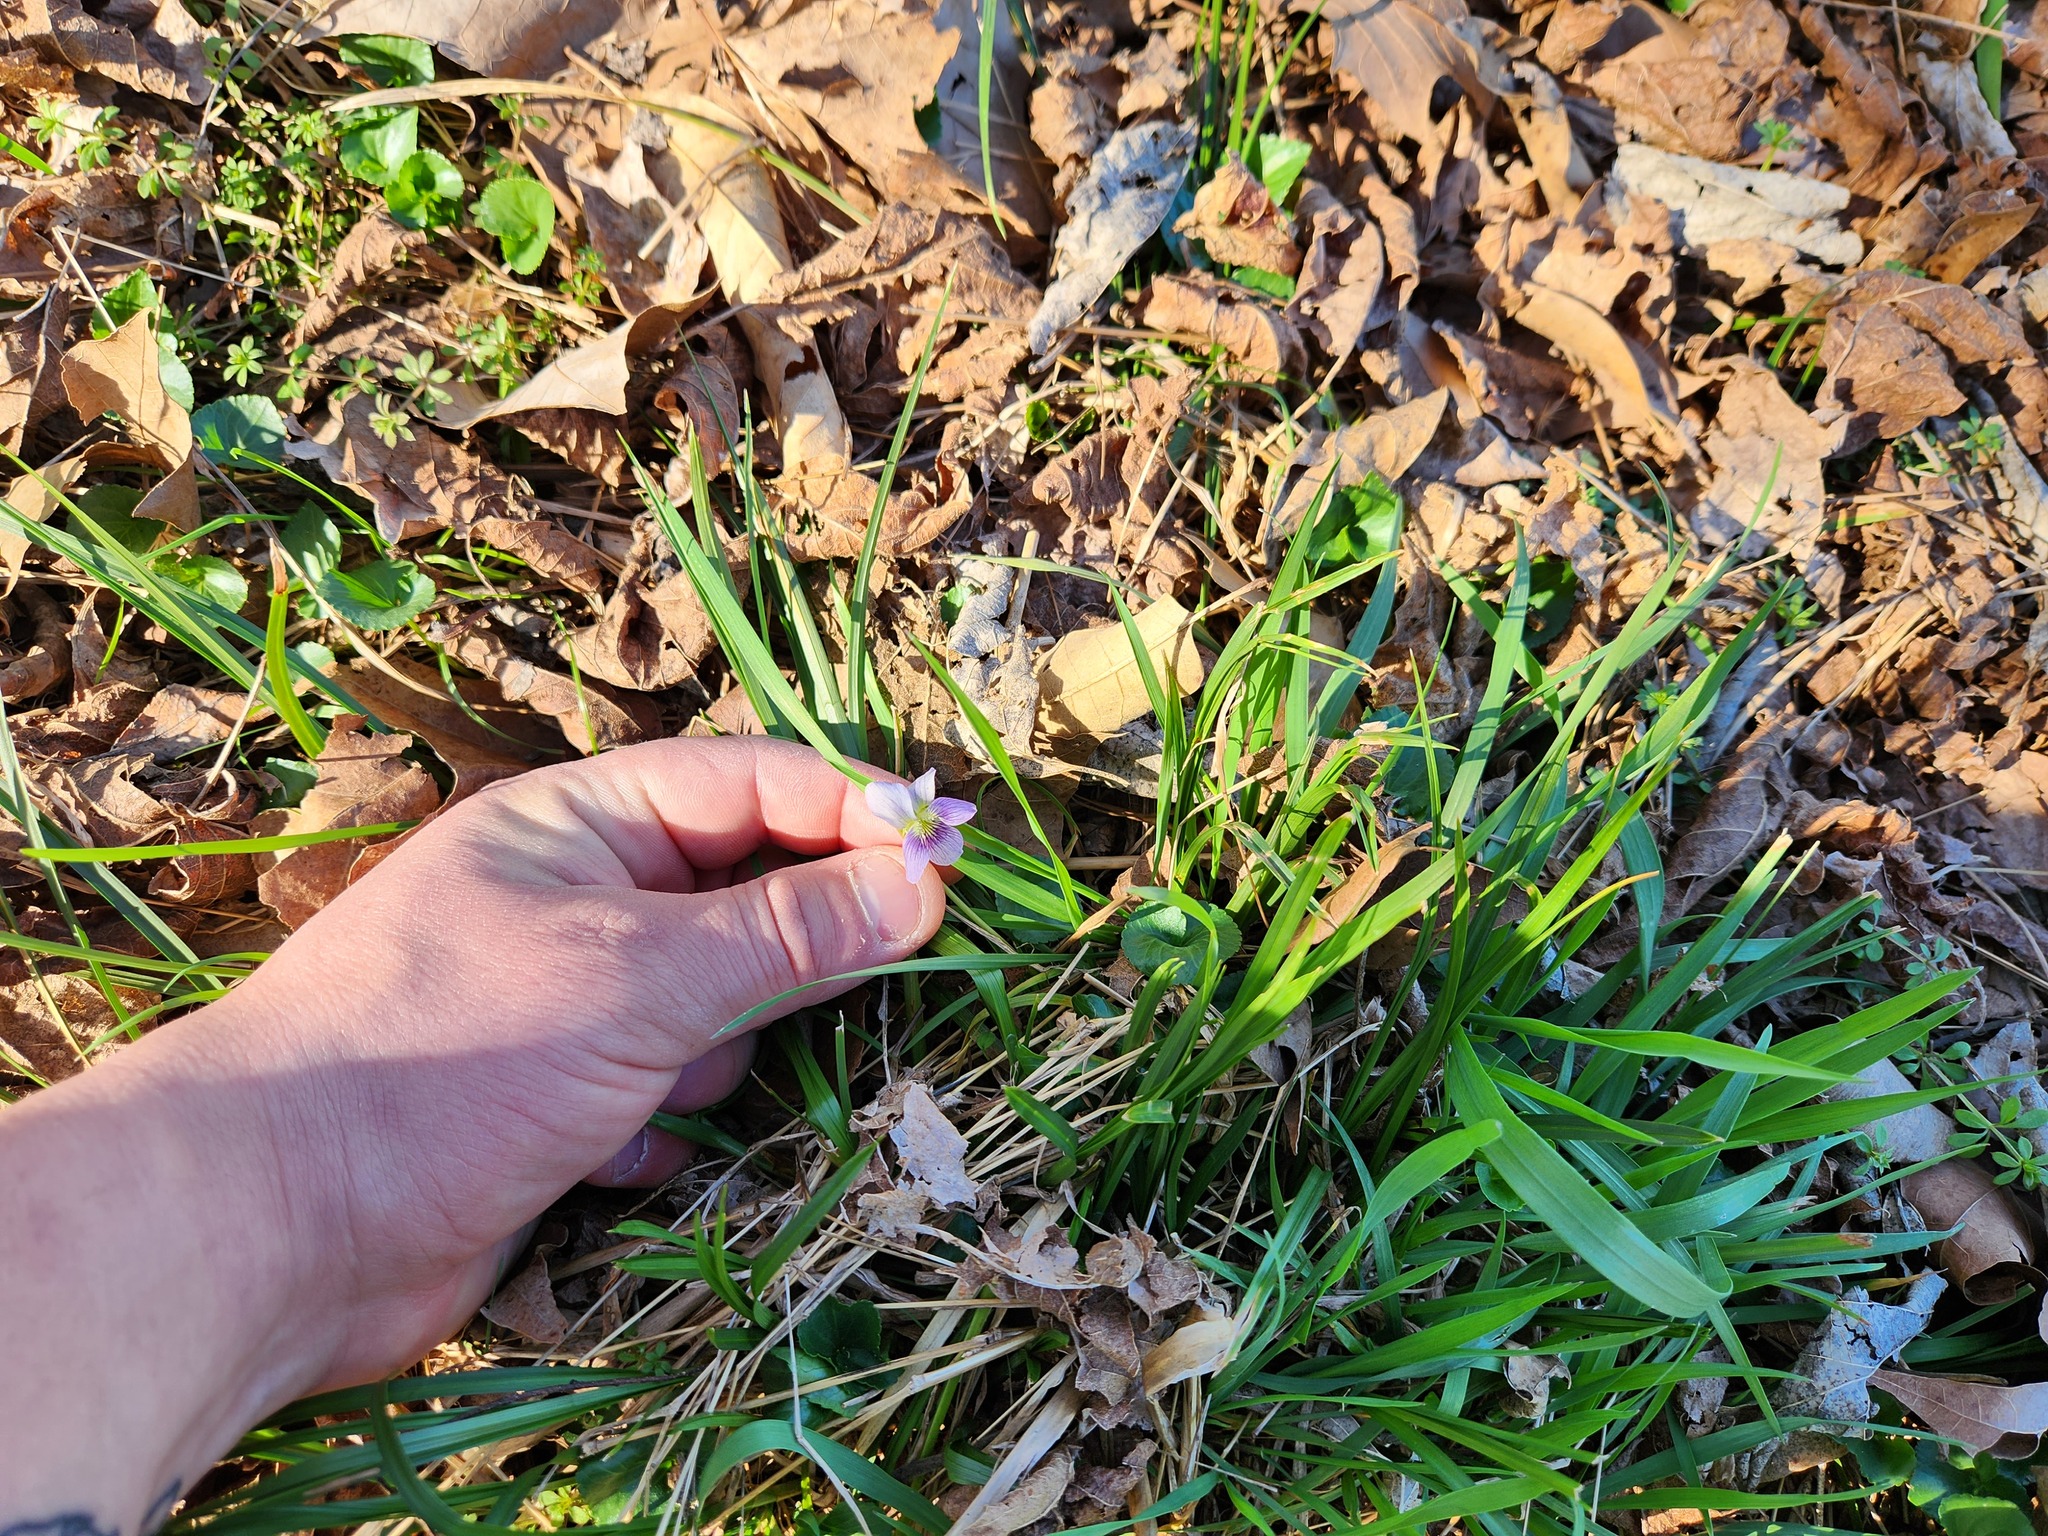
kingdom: Plantae
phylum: Tracheophyta
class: Magnoliopsida
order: Malpighiales
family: Violaceae
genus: Viola
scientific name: Viola sororia
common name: Dooryard violet
